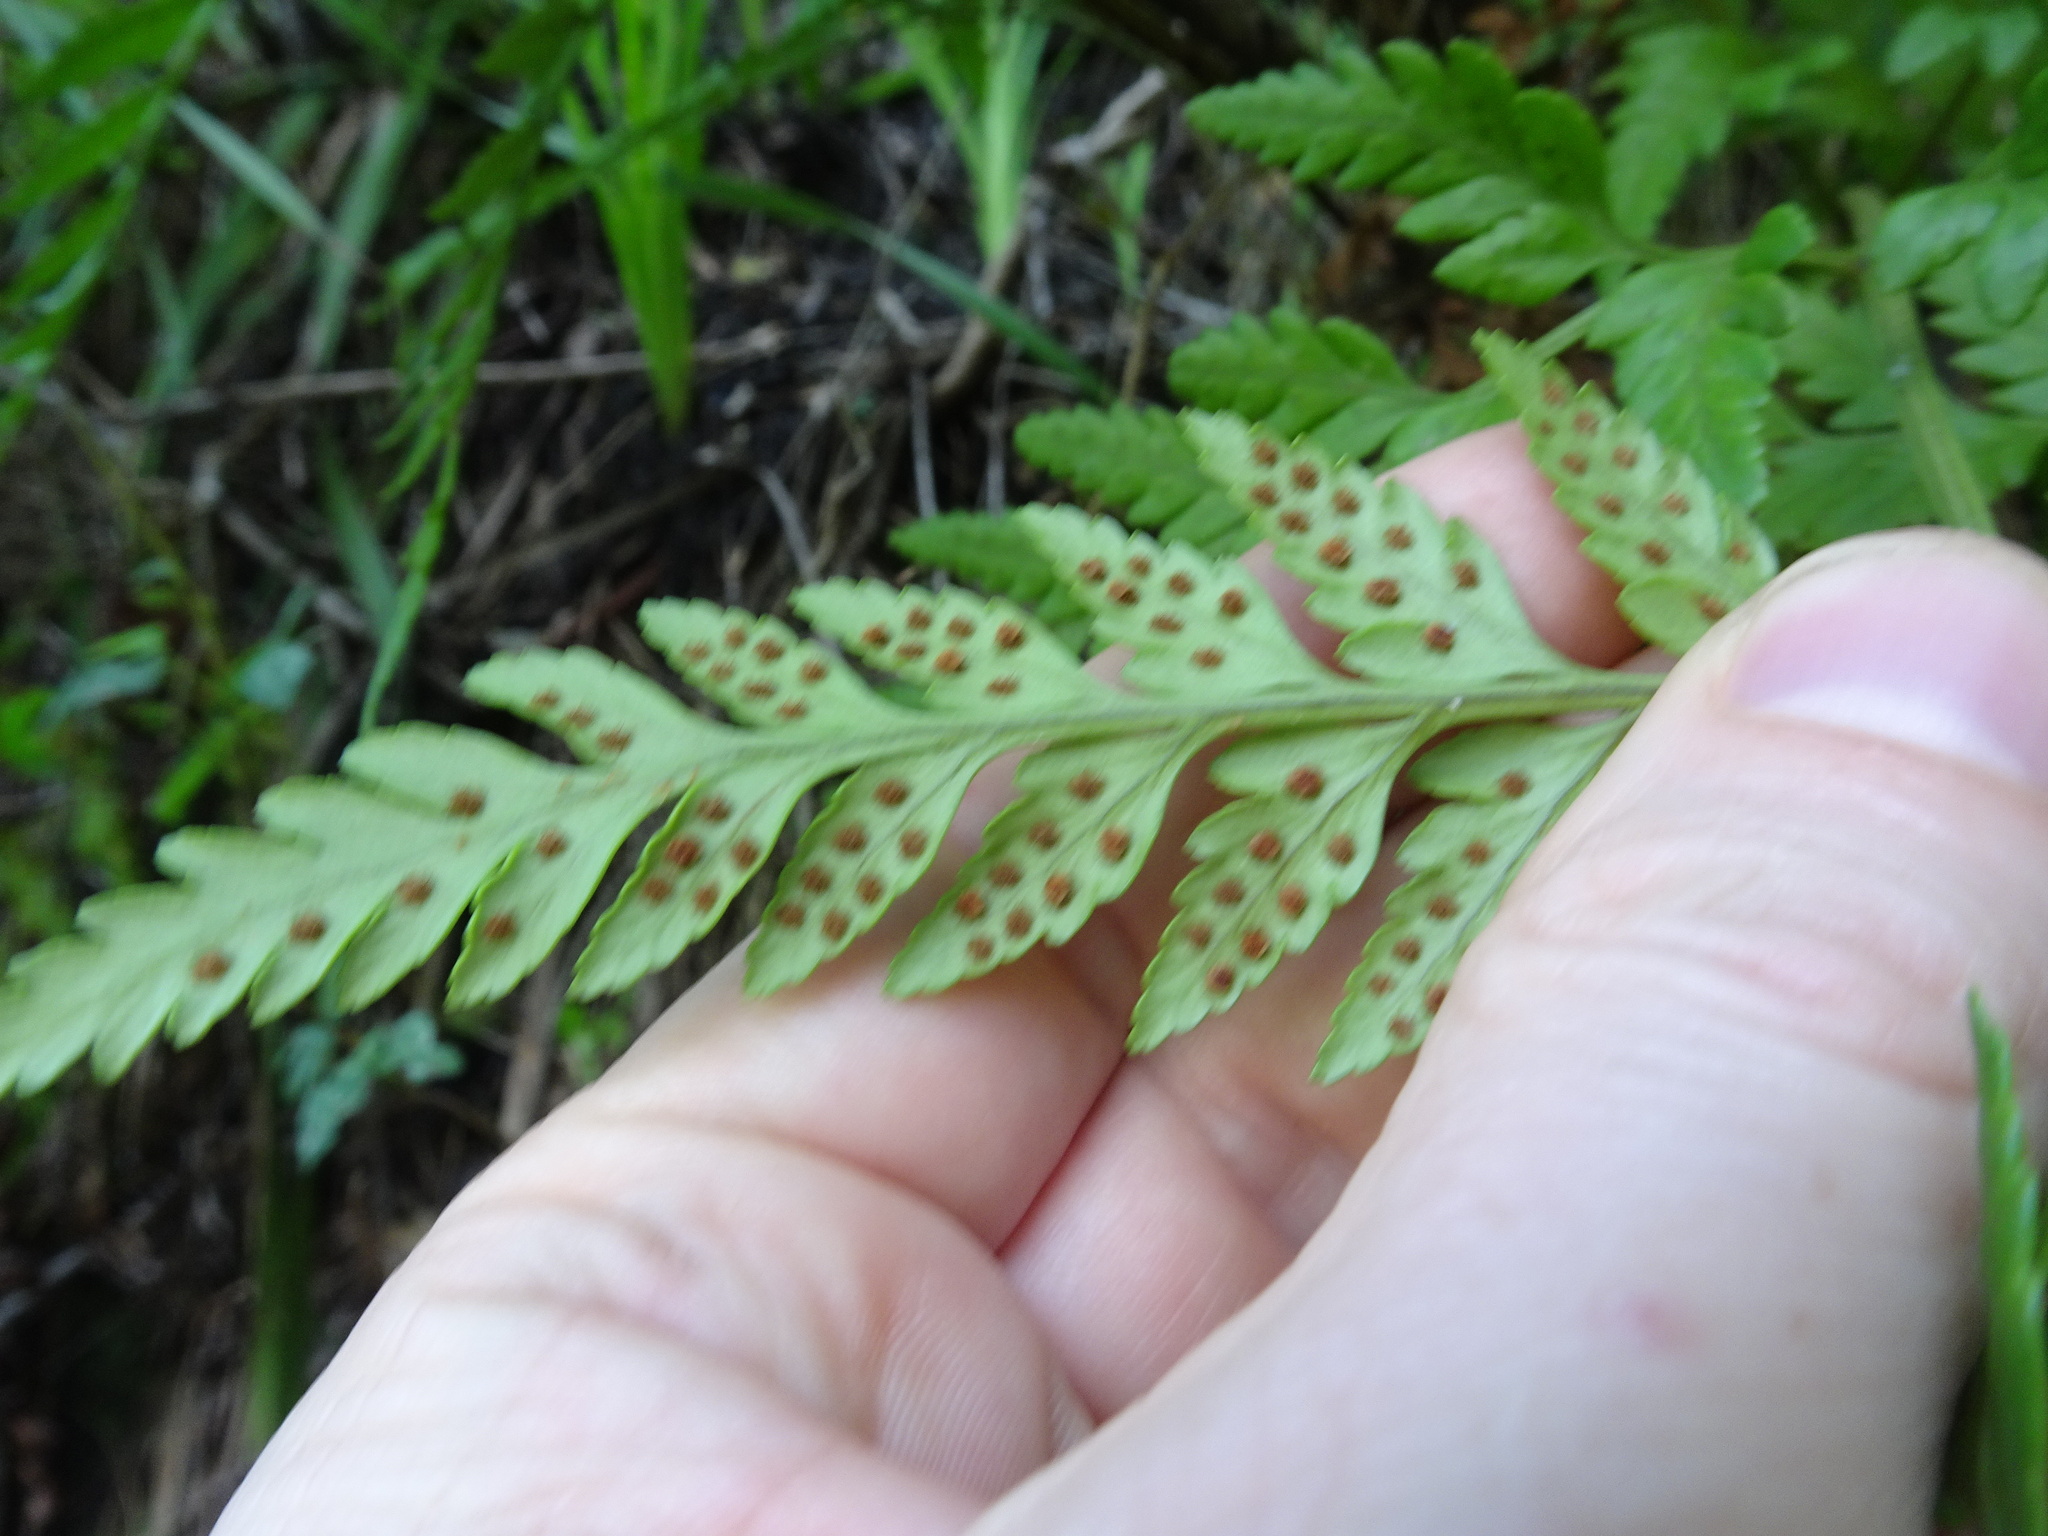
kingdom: Plantae
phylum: Tracheophyta
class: Polypodiopsida
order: Polypodiales
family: Dryopteridaceae
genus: Rumohra
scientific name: Rumohra adiantiformis
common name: Leather fern
